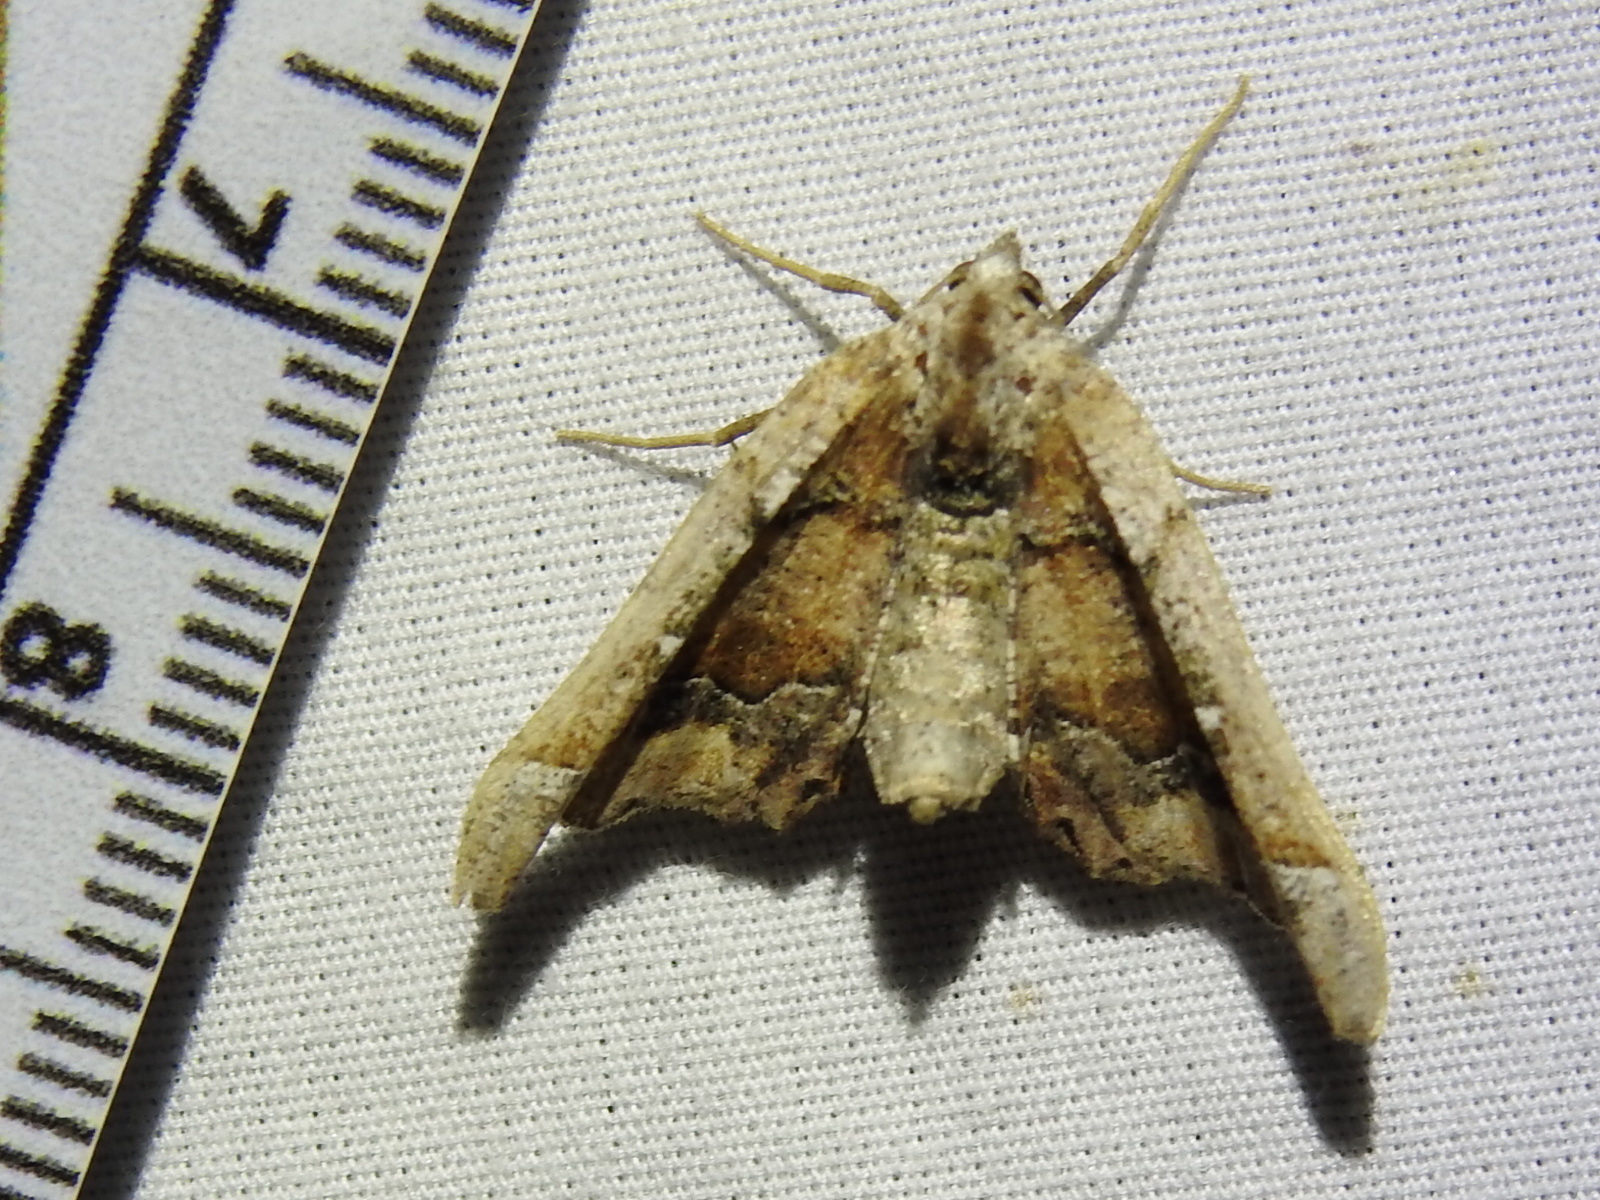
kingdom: Animalia
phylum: Arthropoda
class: Insecta
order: Lepidoptera
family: Geometridae
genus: Pero
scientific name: Pero meskaria
